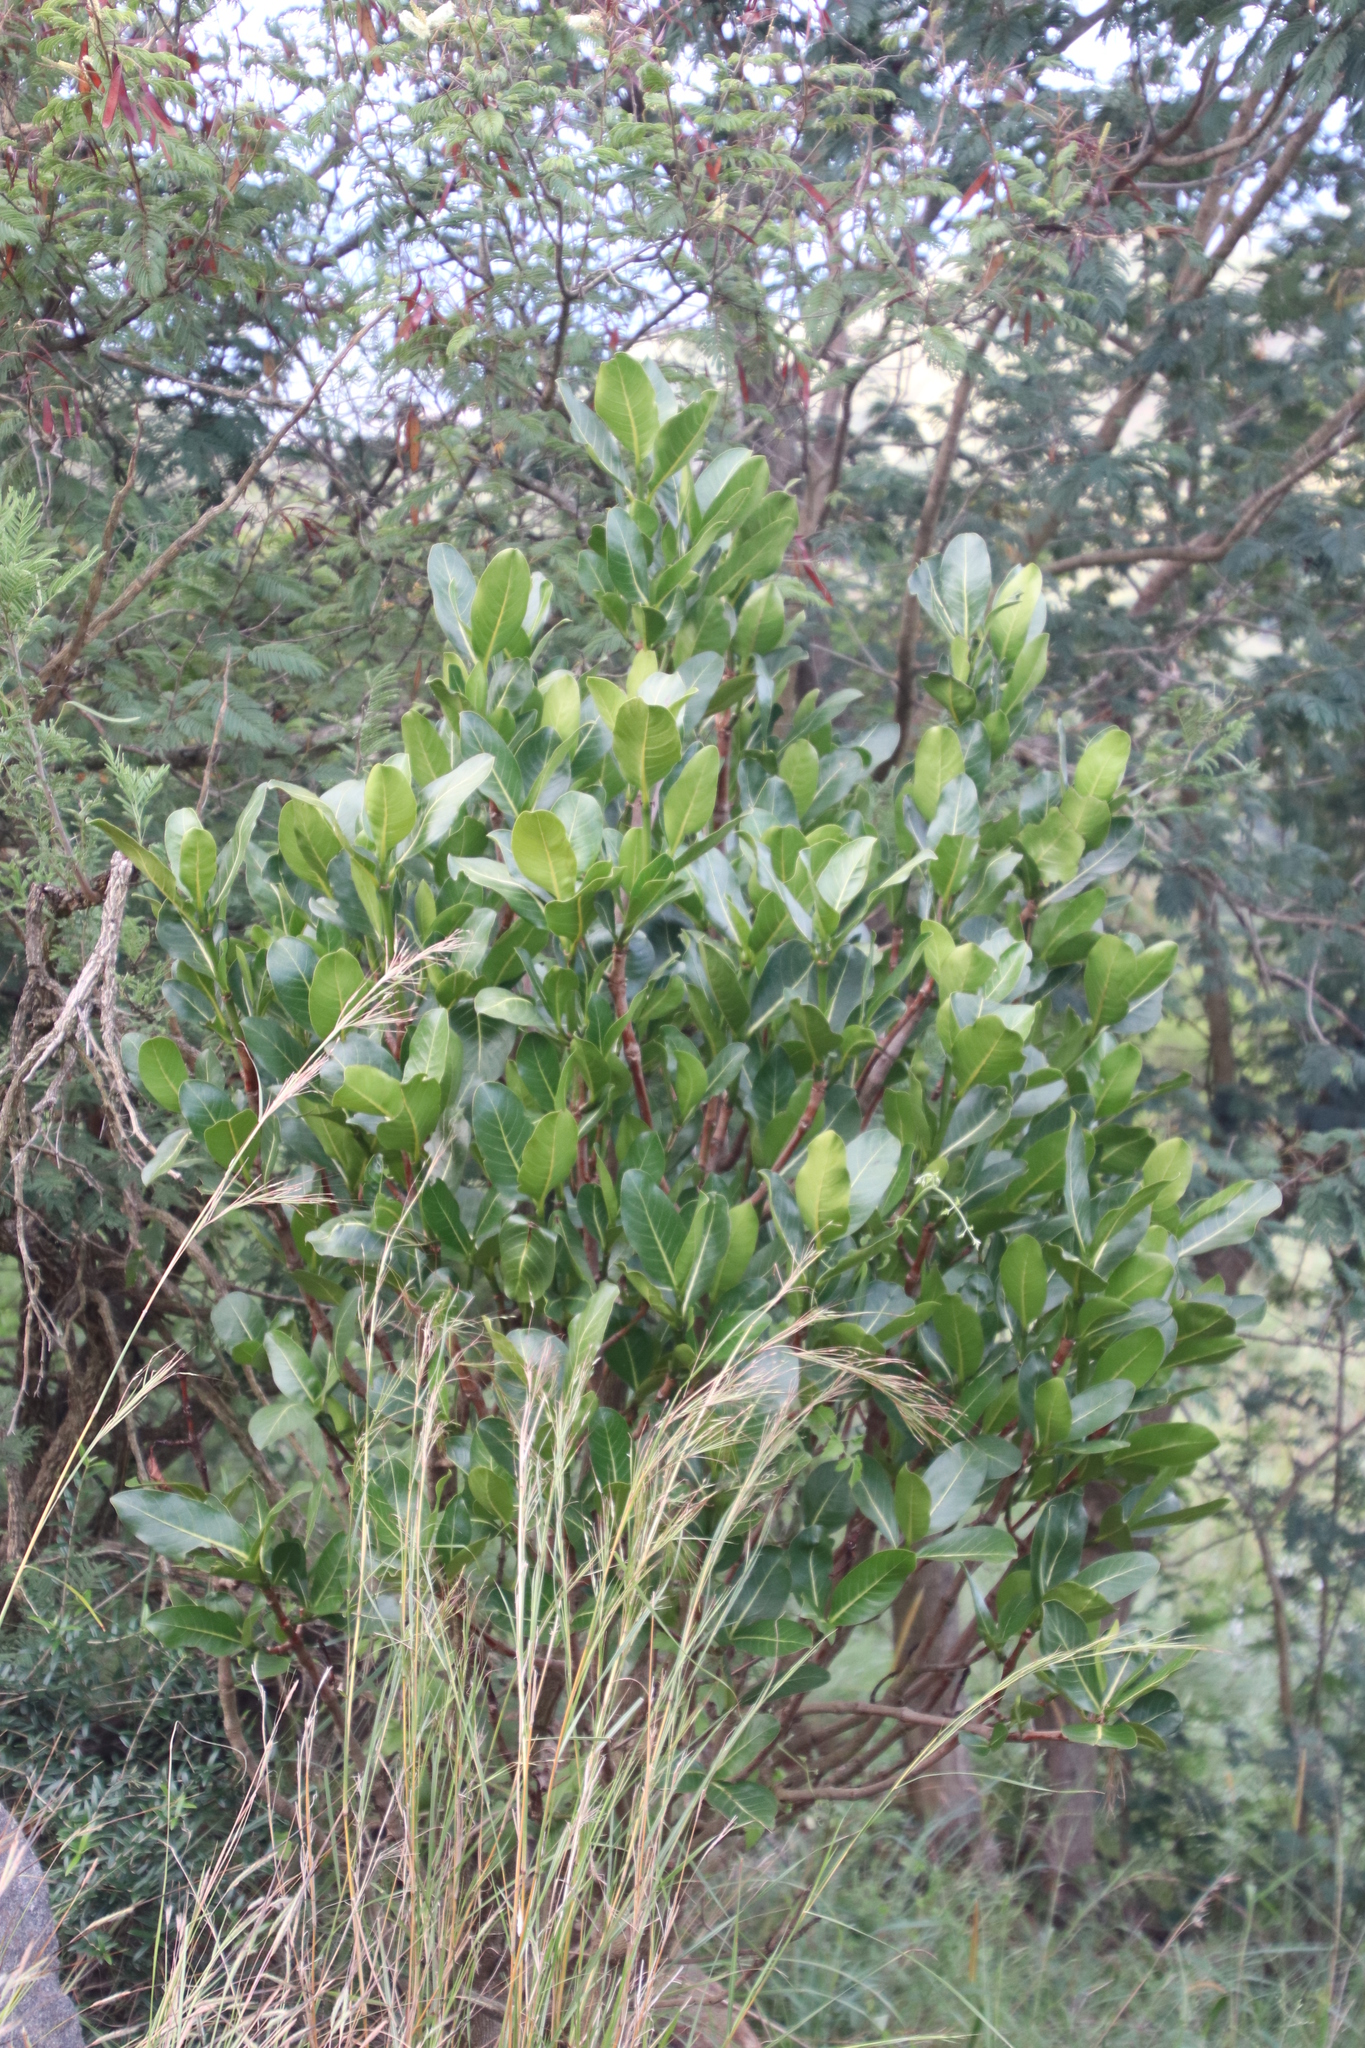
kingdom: Plantae
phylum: Tracheophyta
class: Magnoliopsida
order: Gentianales
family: Rubiaceae
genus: Psychotria
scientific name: Psychotria
